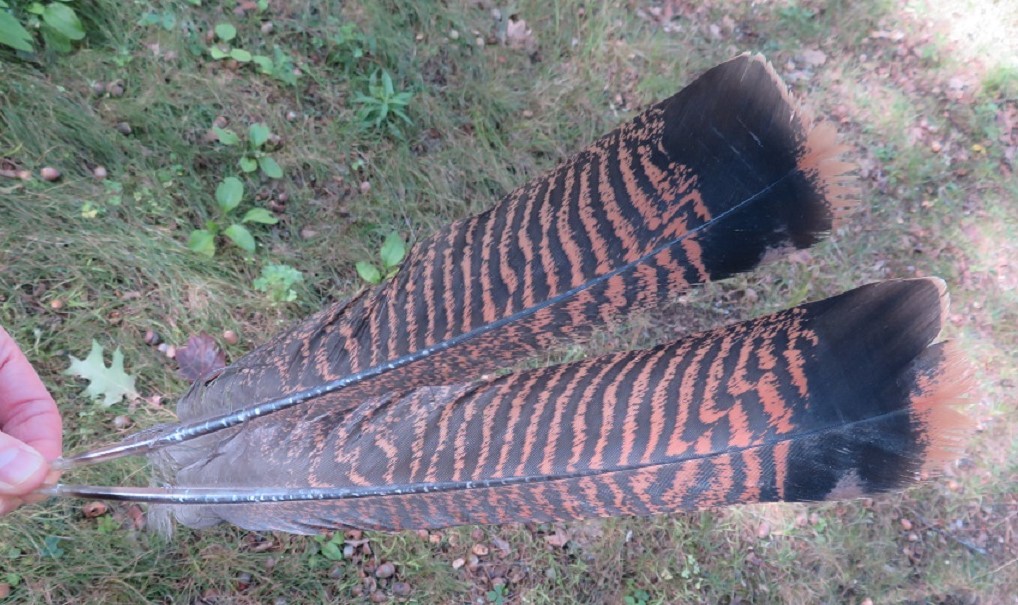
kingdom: Animalia
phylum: Chordata
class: Aves
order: Galliformes
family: Phasianidae
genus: Meleagris
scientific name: Meleagris gallopavo
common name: Wild turkey
